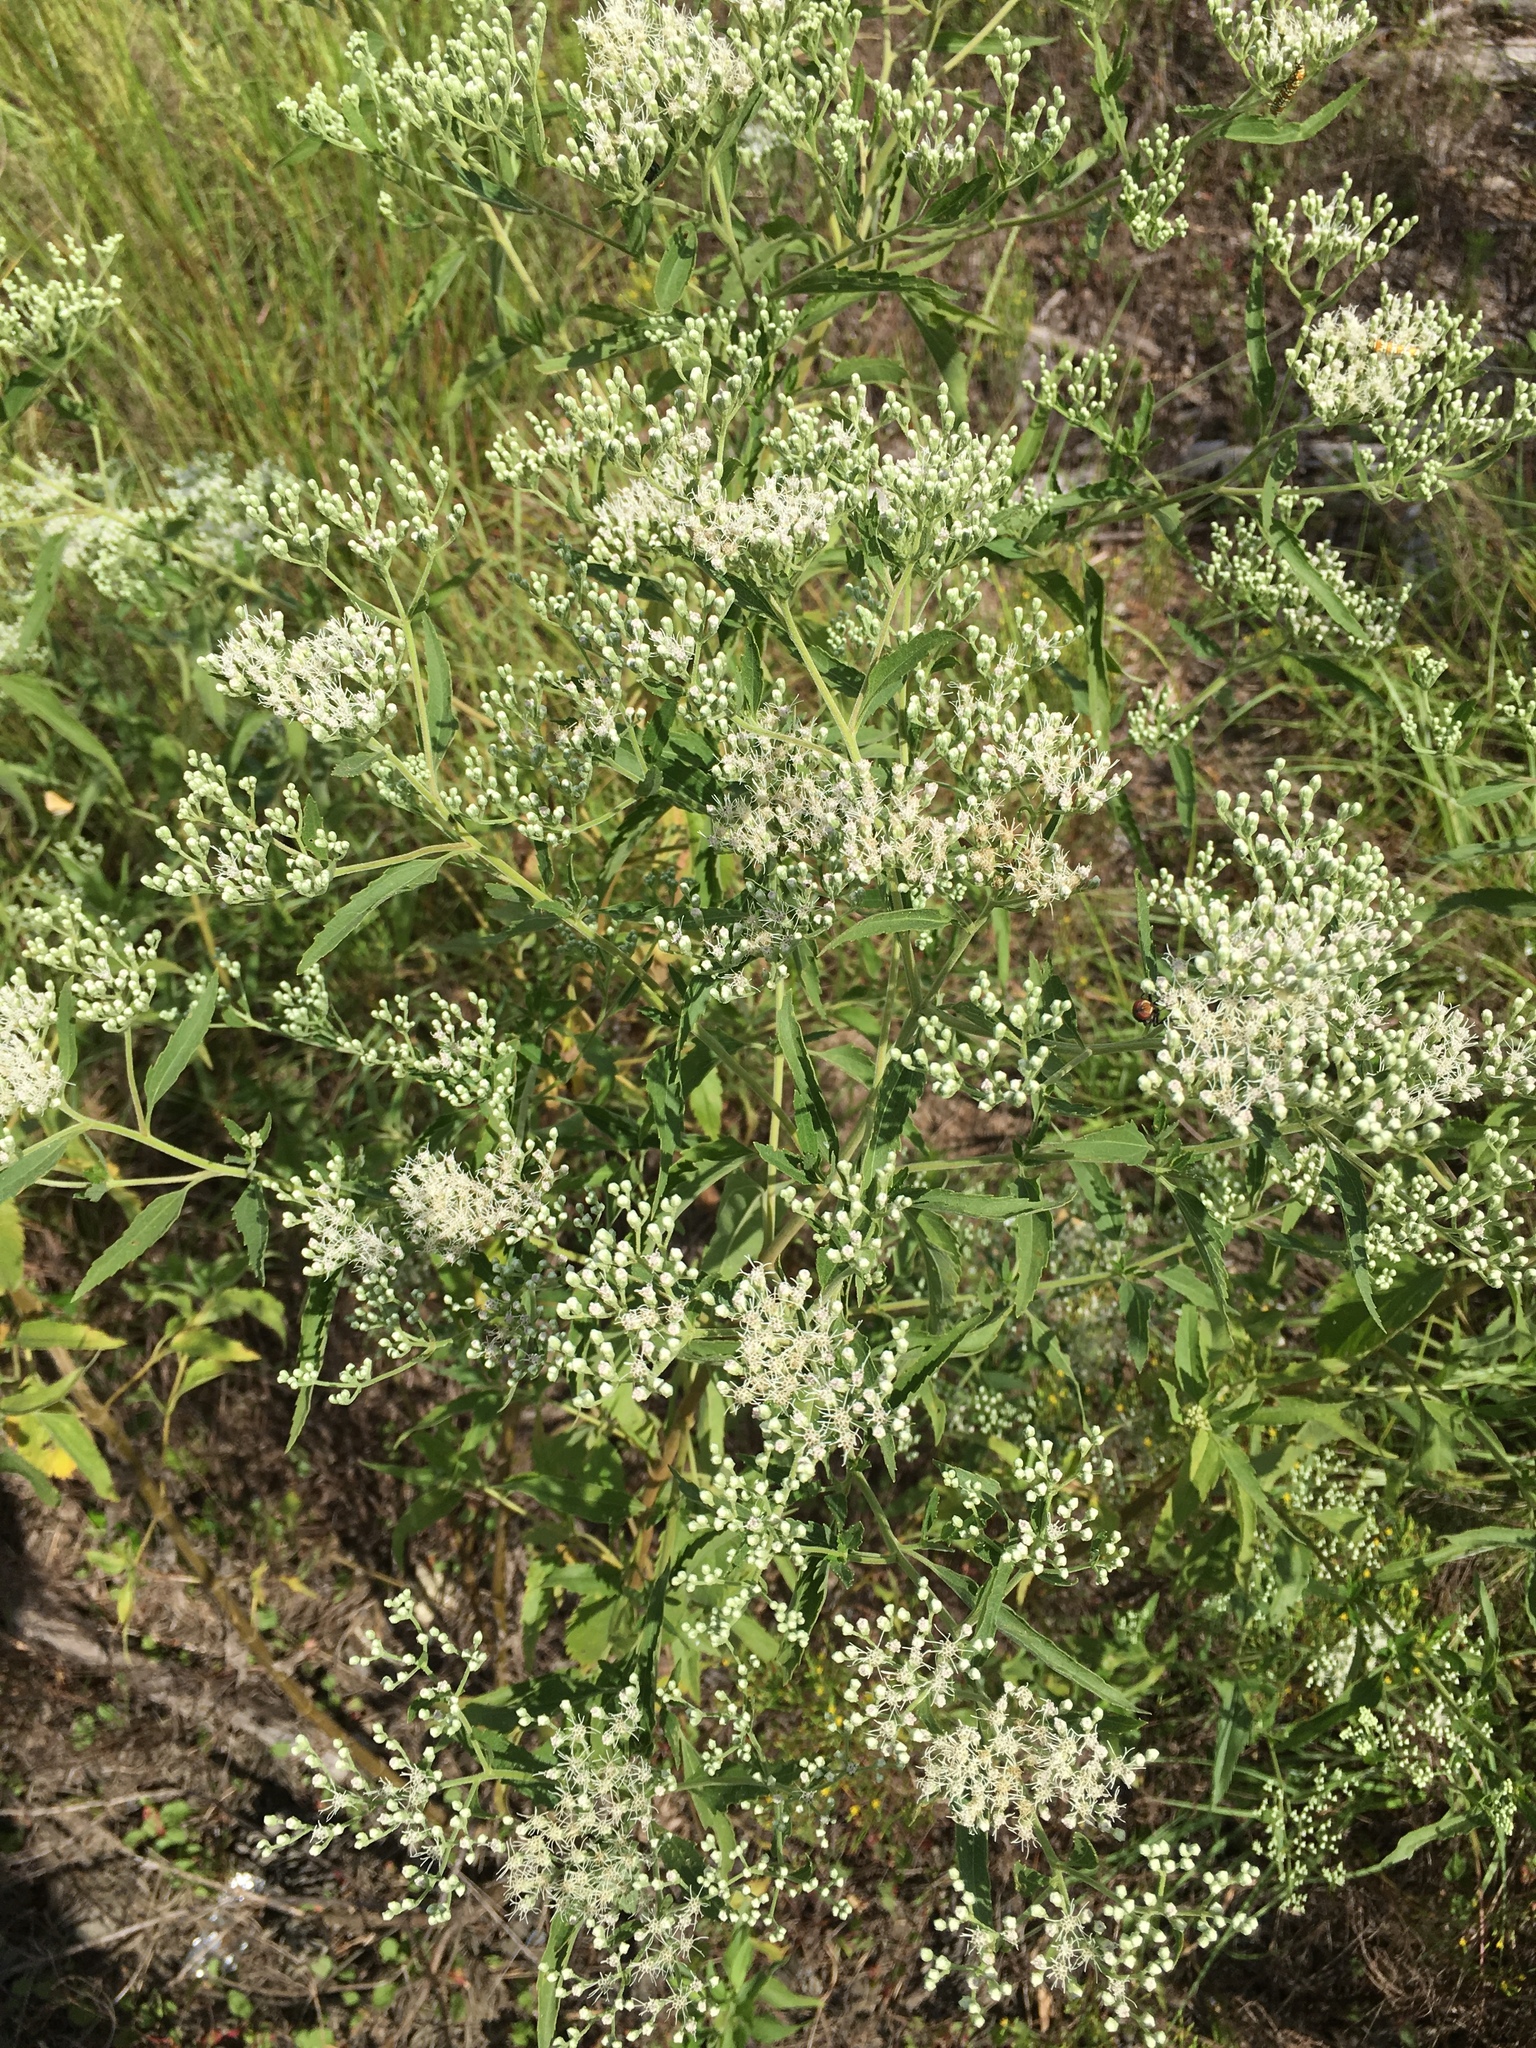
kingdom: Plantae
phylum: Tracheophyta
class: Magnoliopsida
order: Asterales
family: Asteraceae
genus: Eupatorium
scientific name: Eupatorium serotinum
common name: Late boneset
